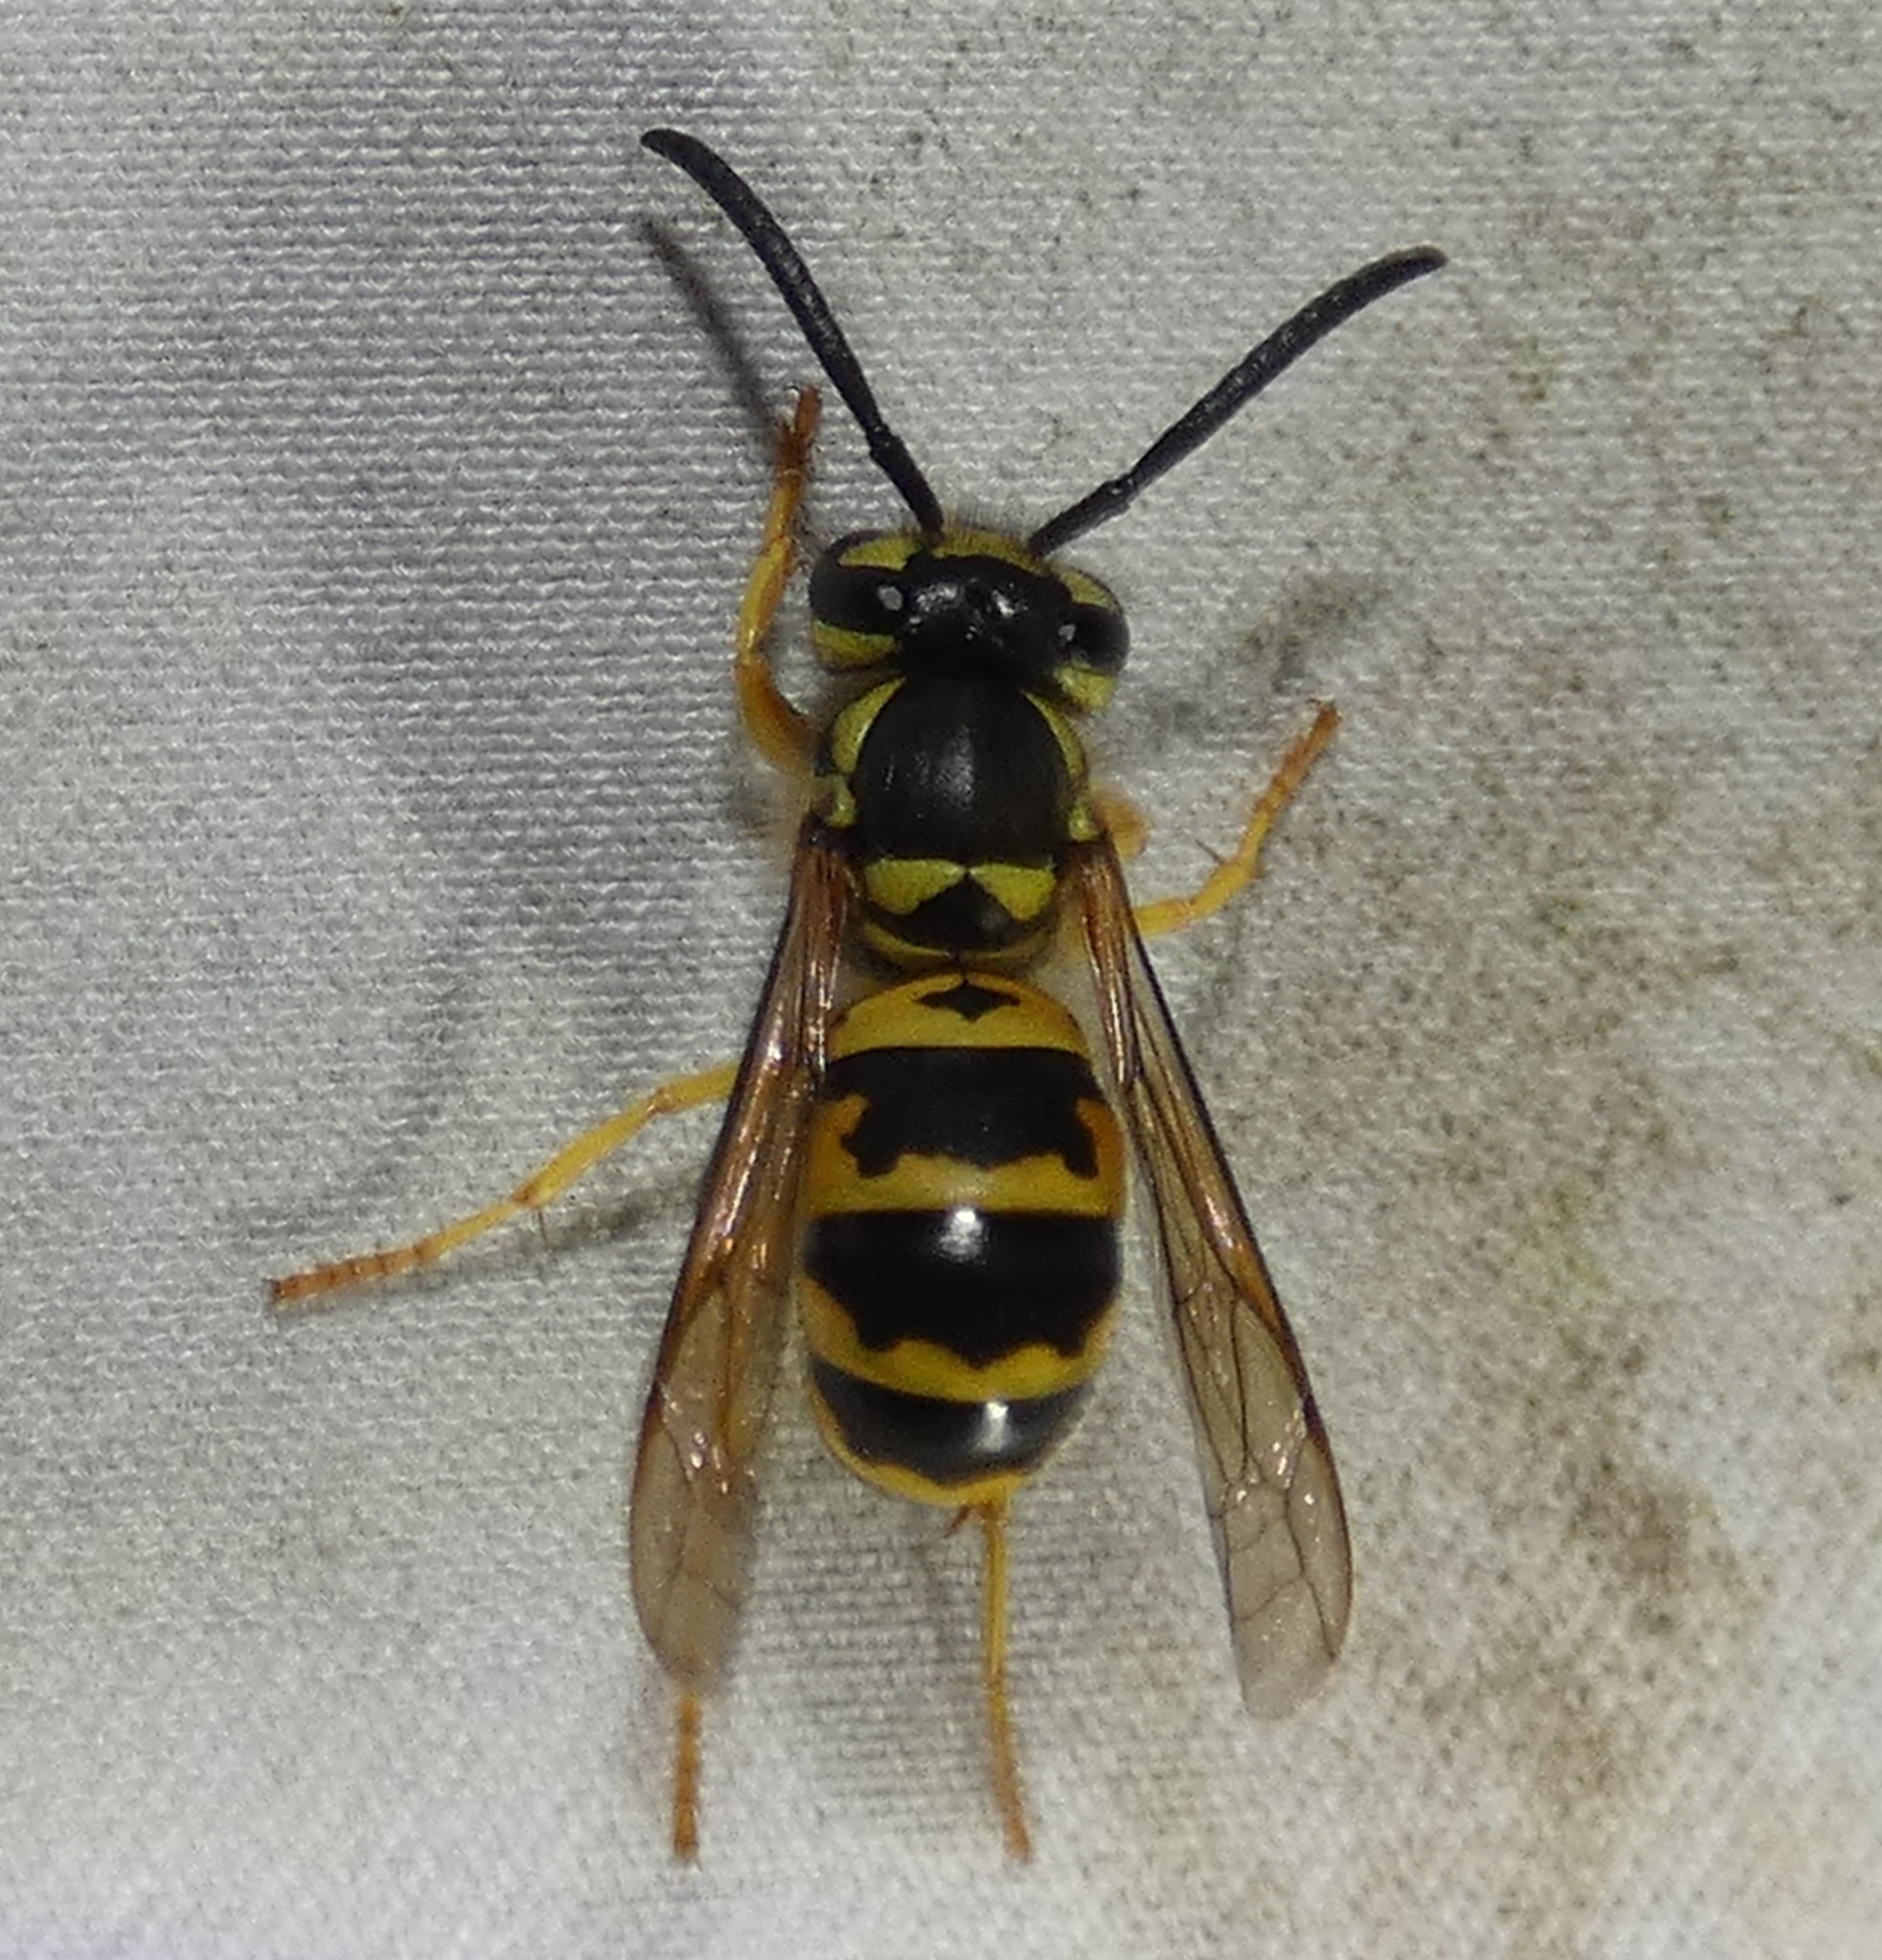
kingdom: Animalia
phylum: Arthropoda
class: Insecta
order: Hymenoptera
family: Vespidae
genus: Vespula
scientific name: Vespula maculifrons
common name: Eastern yellowjacket
